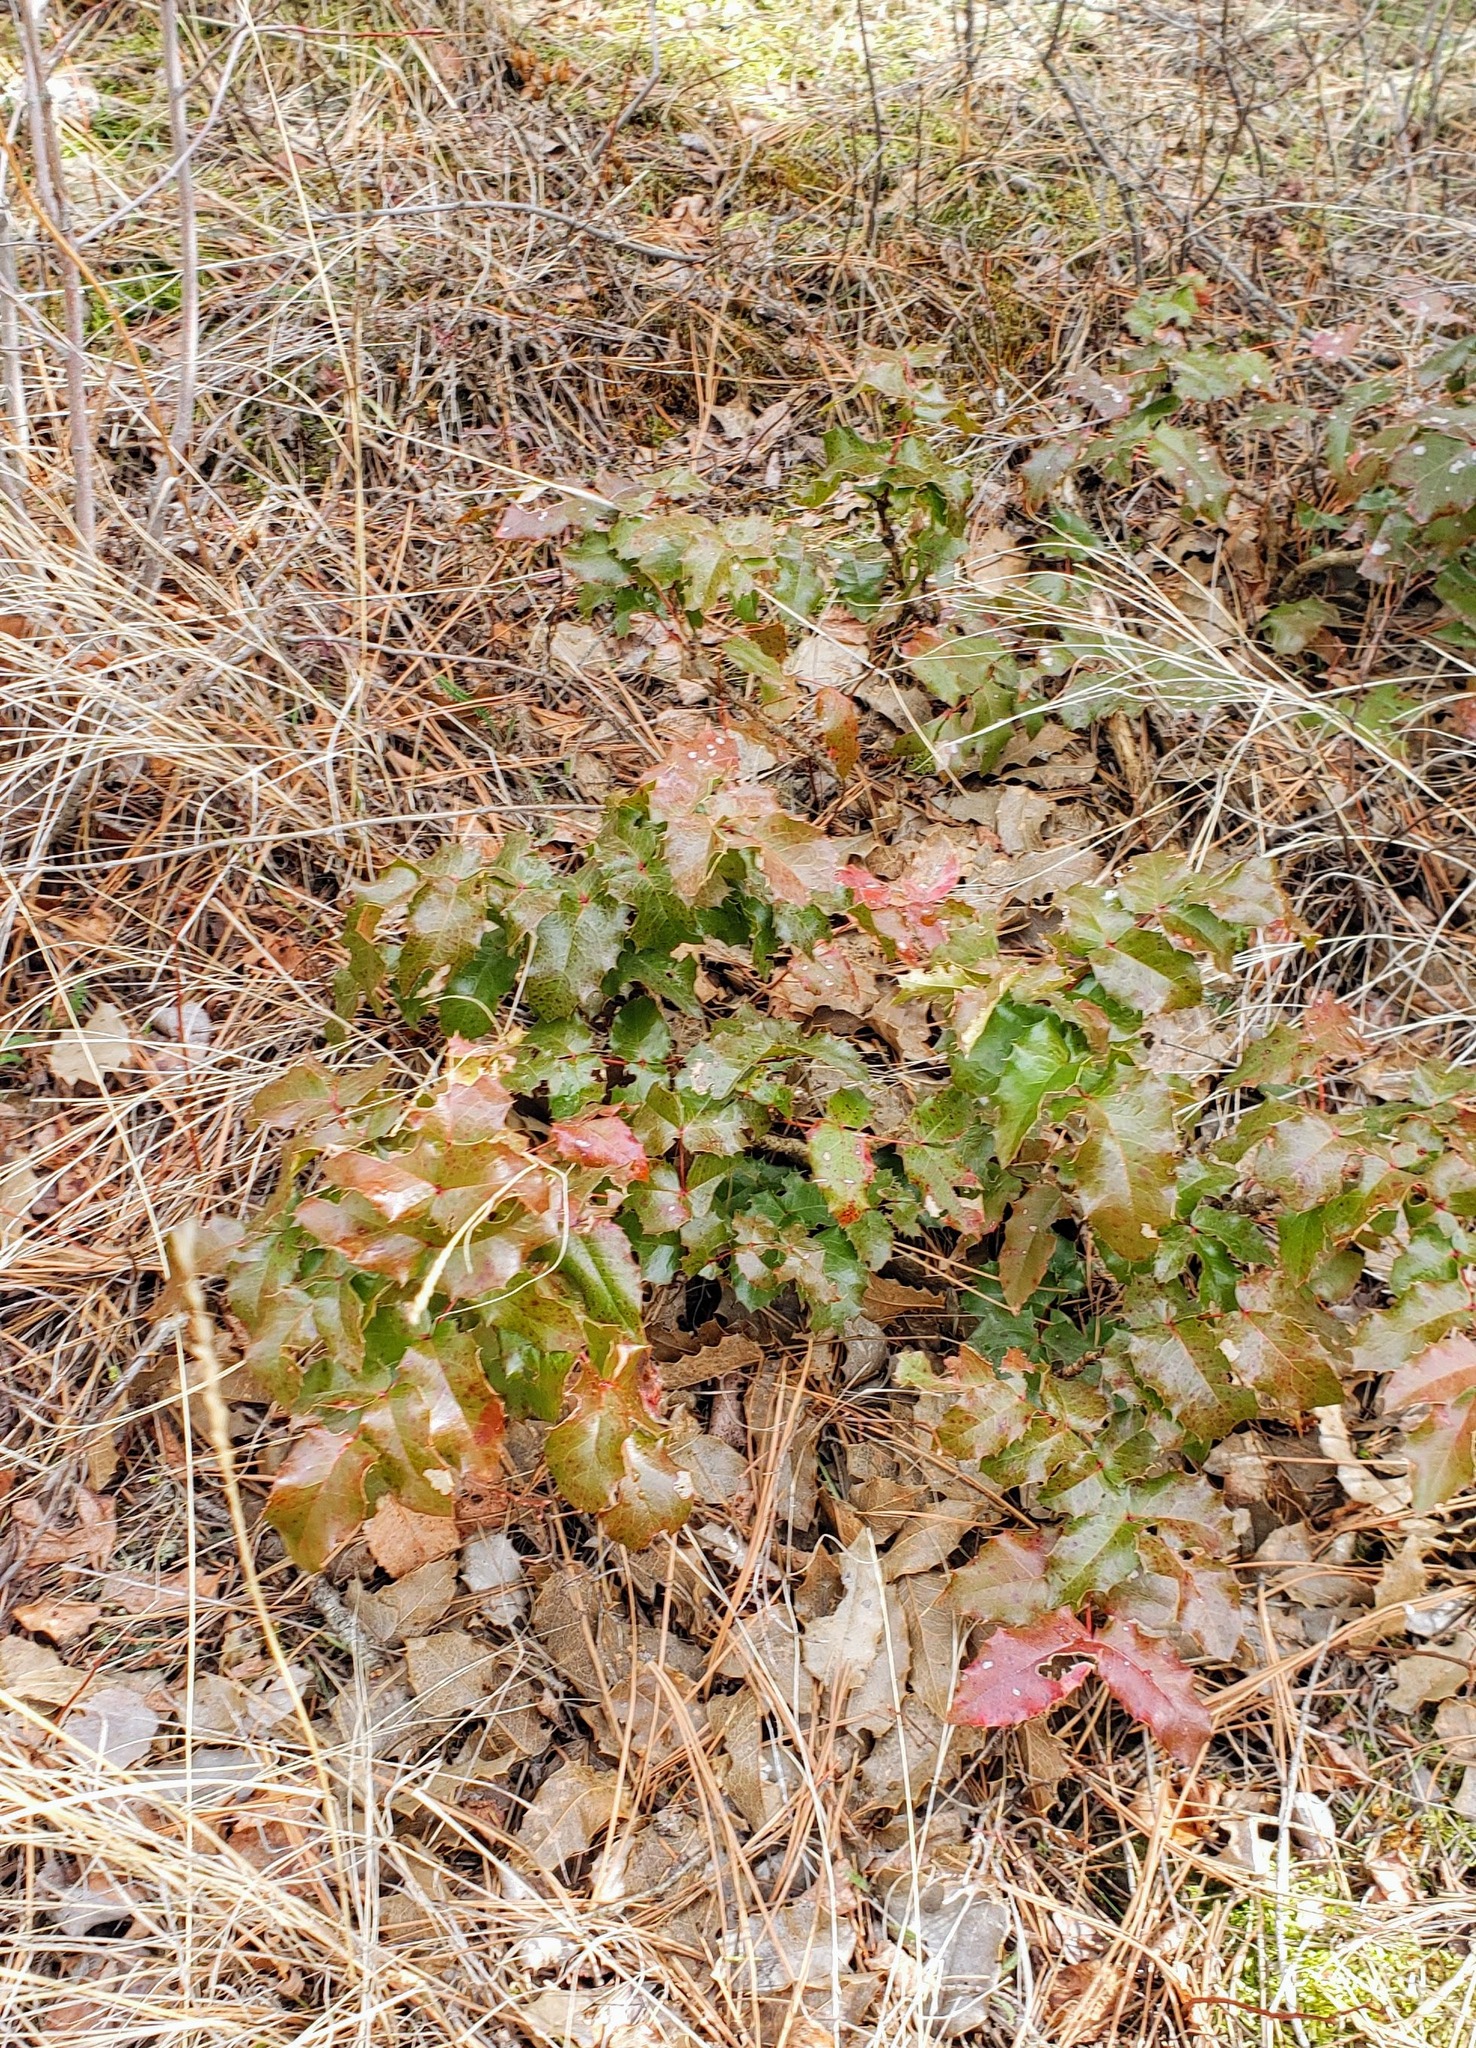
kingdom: Plantae
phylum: Tracheophyta
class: Magnoliopsida
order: Ranunculales
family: Berberidaceae
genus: Mahonia
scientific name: Mahonia aquifolium
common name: Oregon-grape
